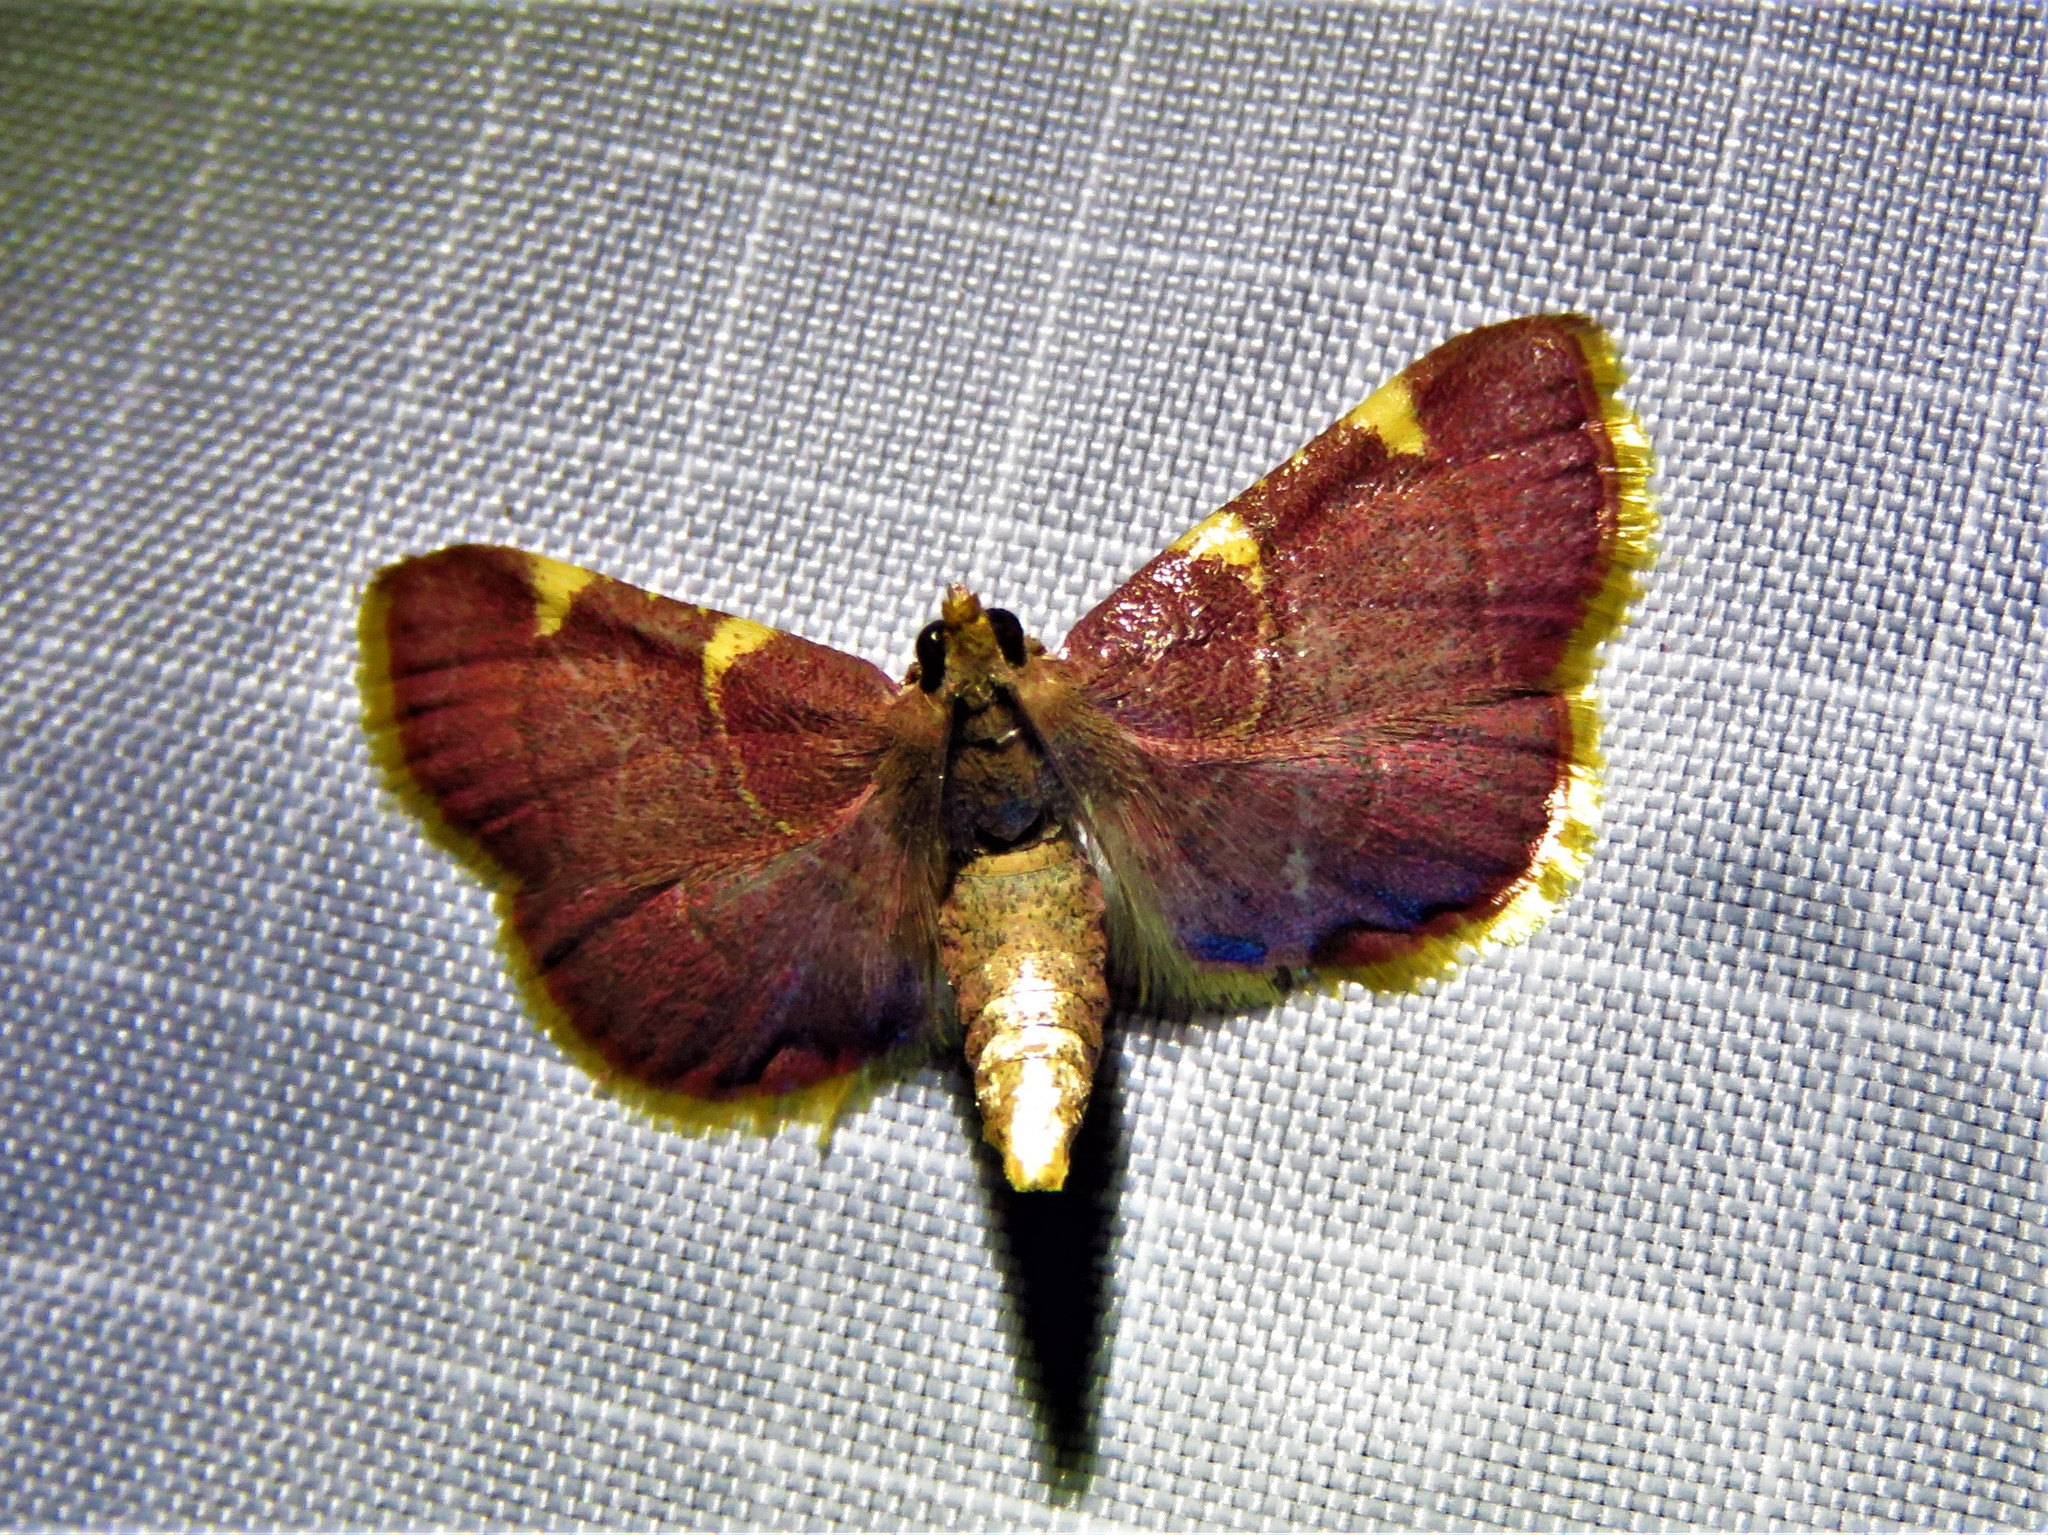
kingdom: Animalia
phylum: Arthropoda
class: Insecta
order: Lepidoptera
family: Pyralidae
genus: Hypsopygia
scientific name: Hypsopygia olinalis
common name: Yellow-fringed dolichomia moth
